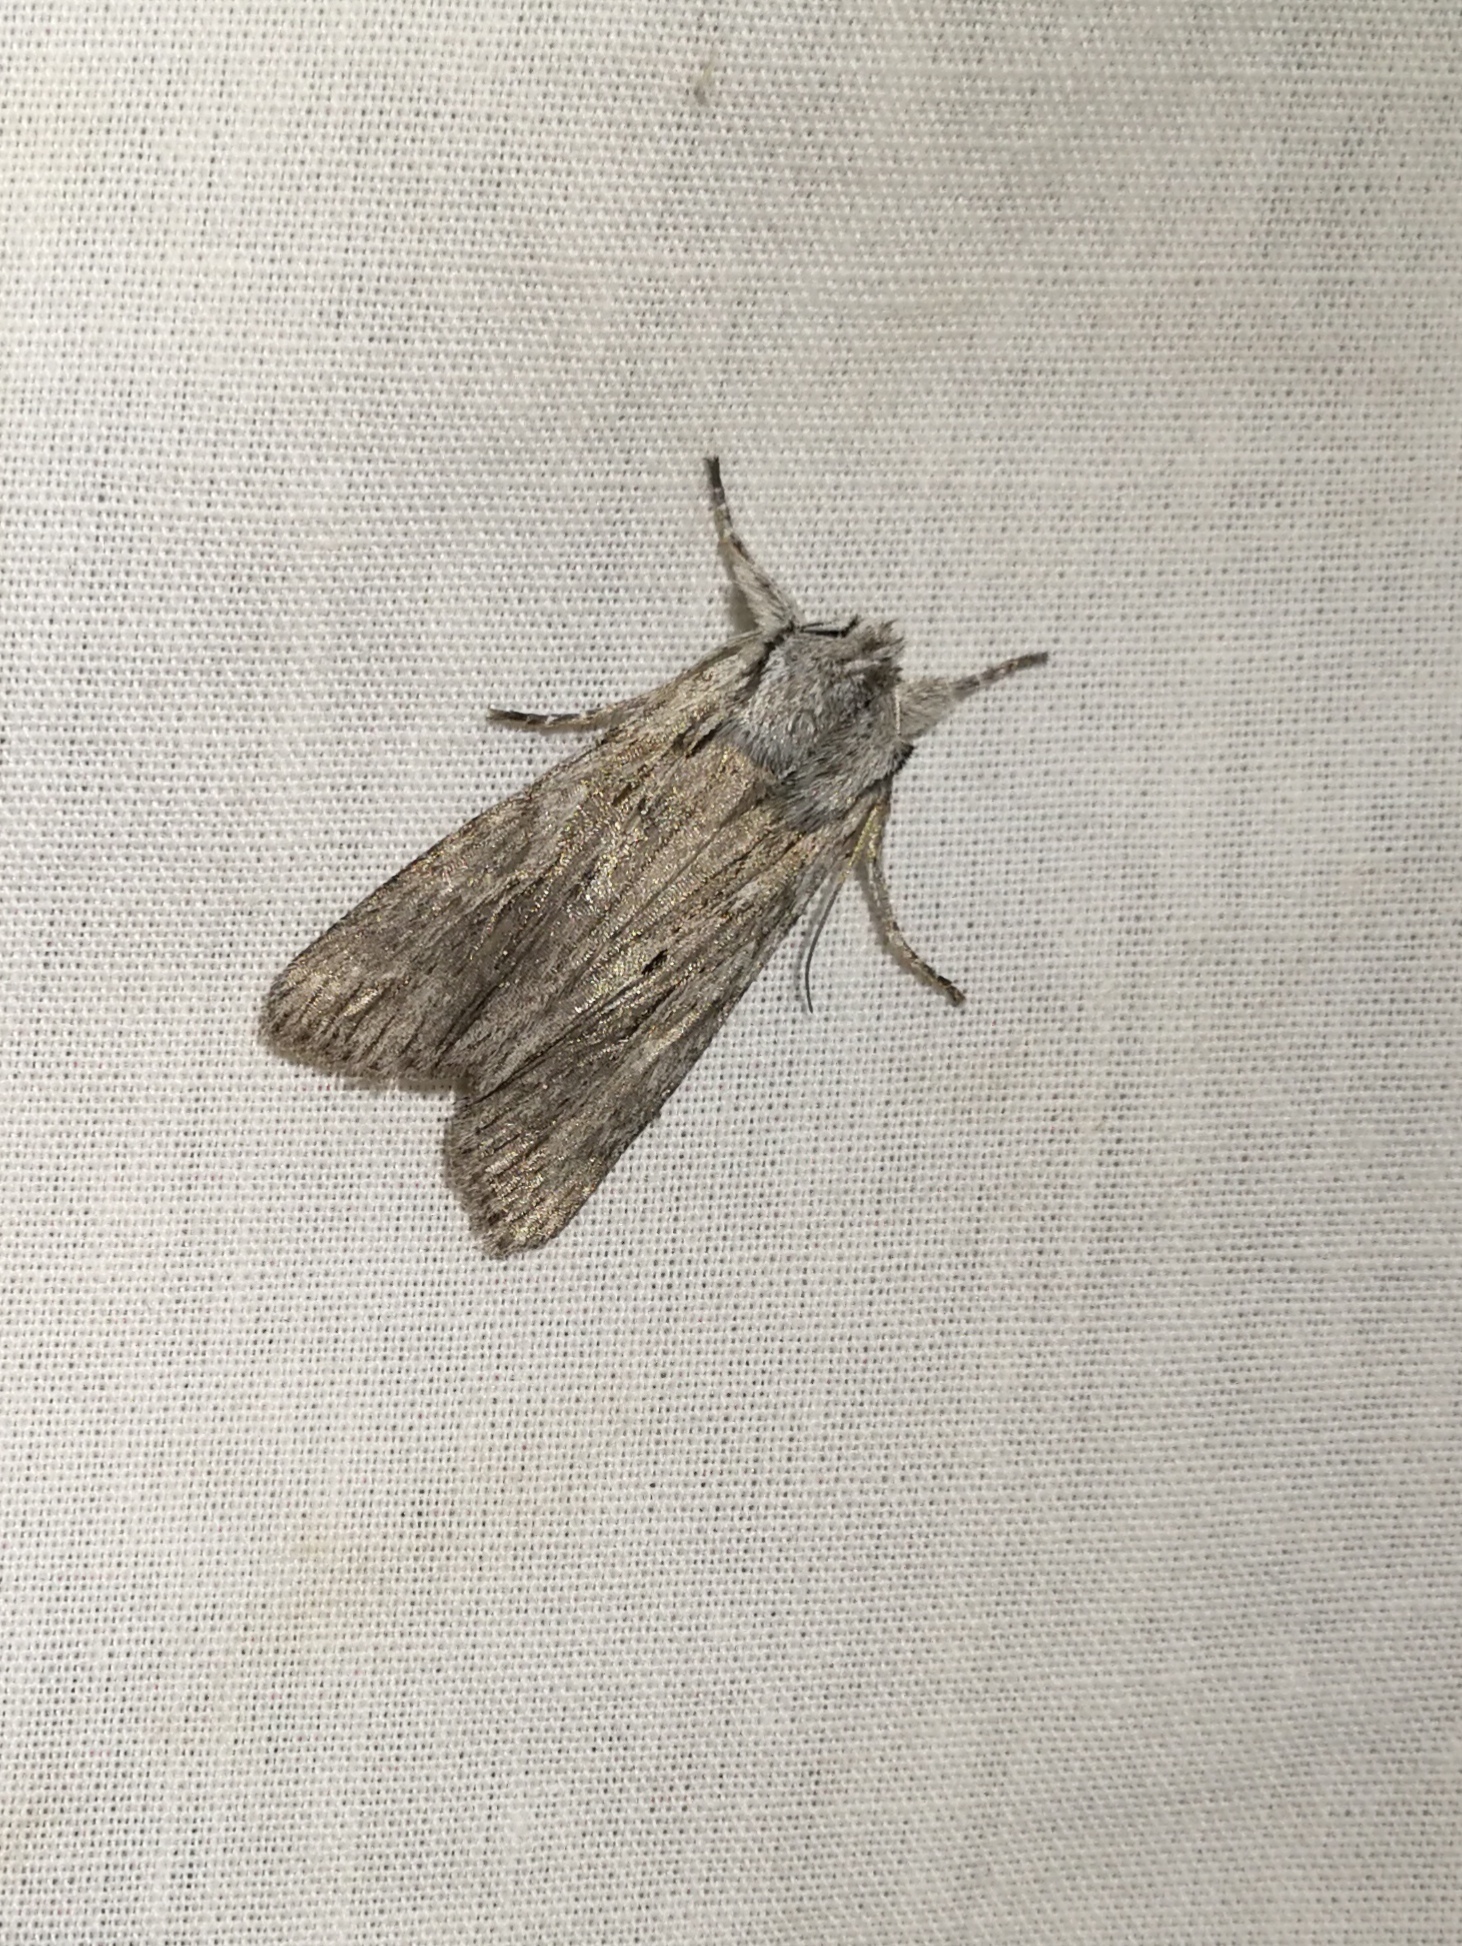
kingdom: Animalia
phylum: Arthropoda
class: Insecta
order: Lepidoptera
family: Noctuidae
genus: Lithophane
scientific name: Lithophane leautieri
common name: Blair's shoulder-knot
